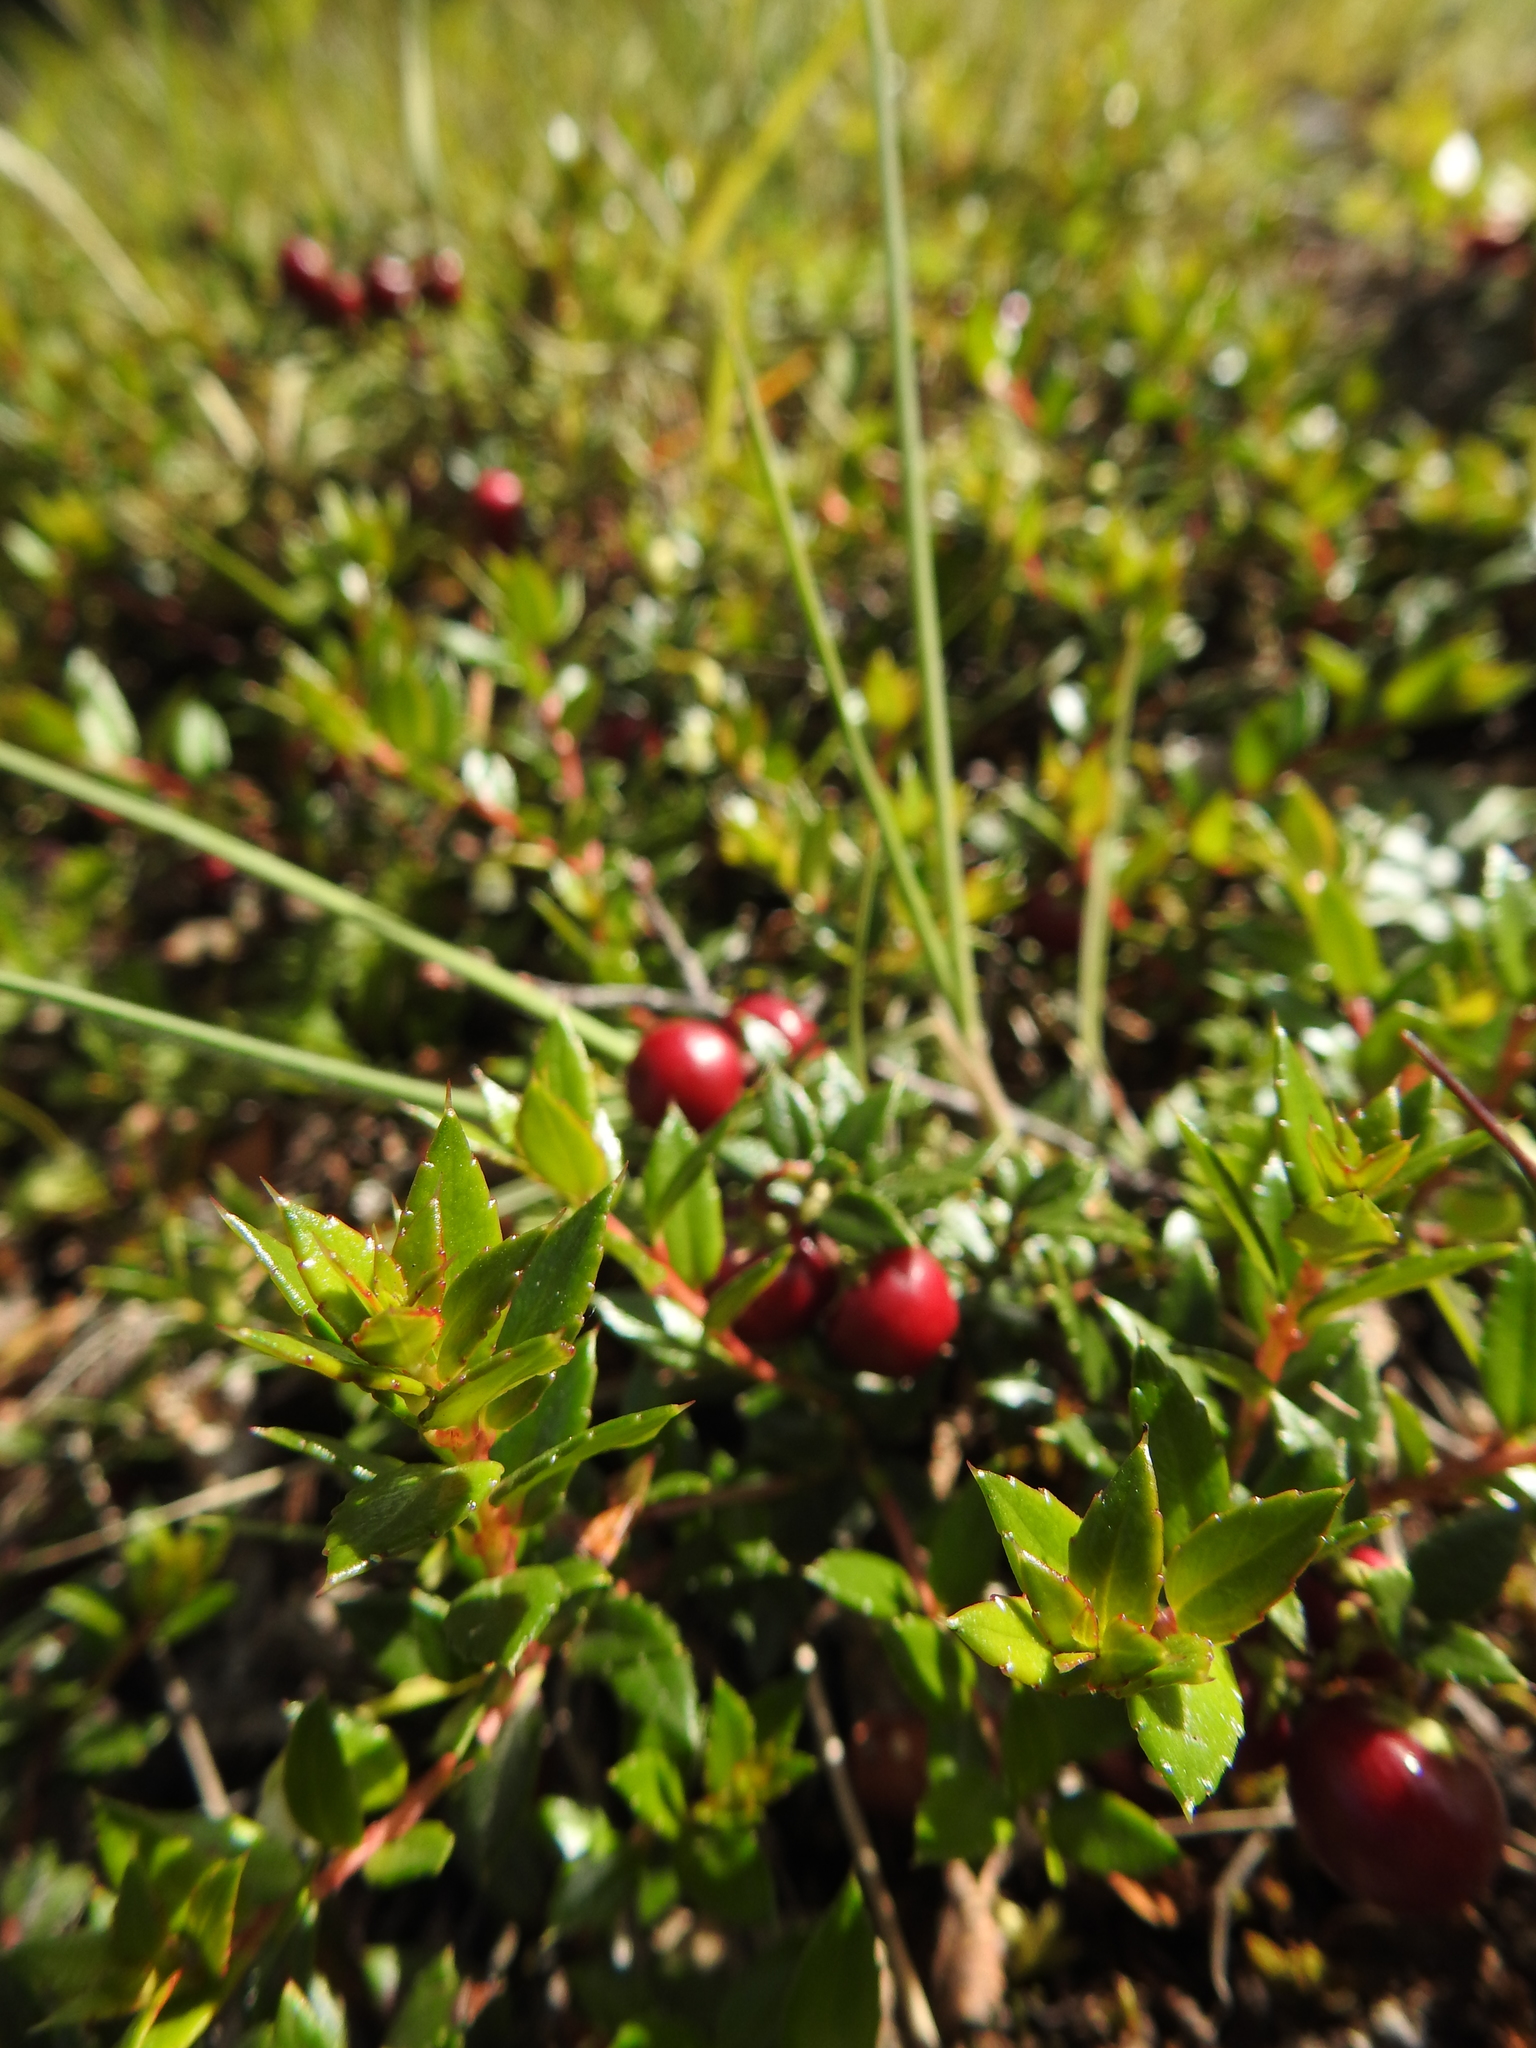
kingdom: Plantae
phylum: Tracheophyta
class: Magnoliopsida
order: Ericales
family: Ericaceae
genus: Gaultheria
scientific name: Gaultheria mucronata
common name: Prickly heath
